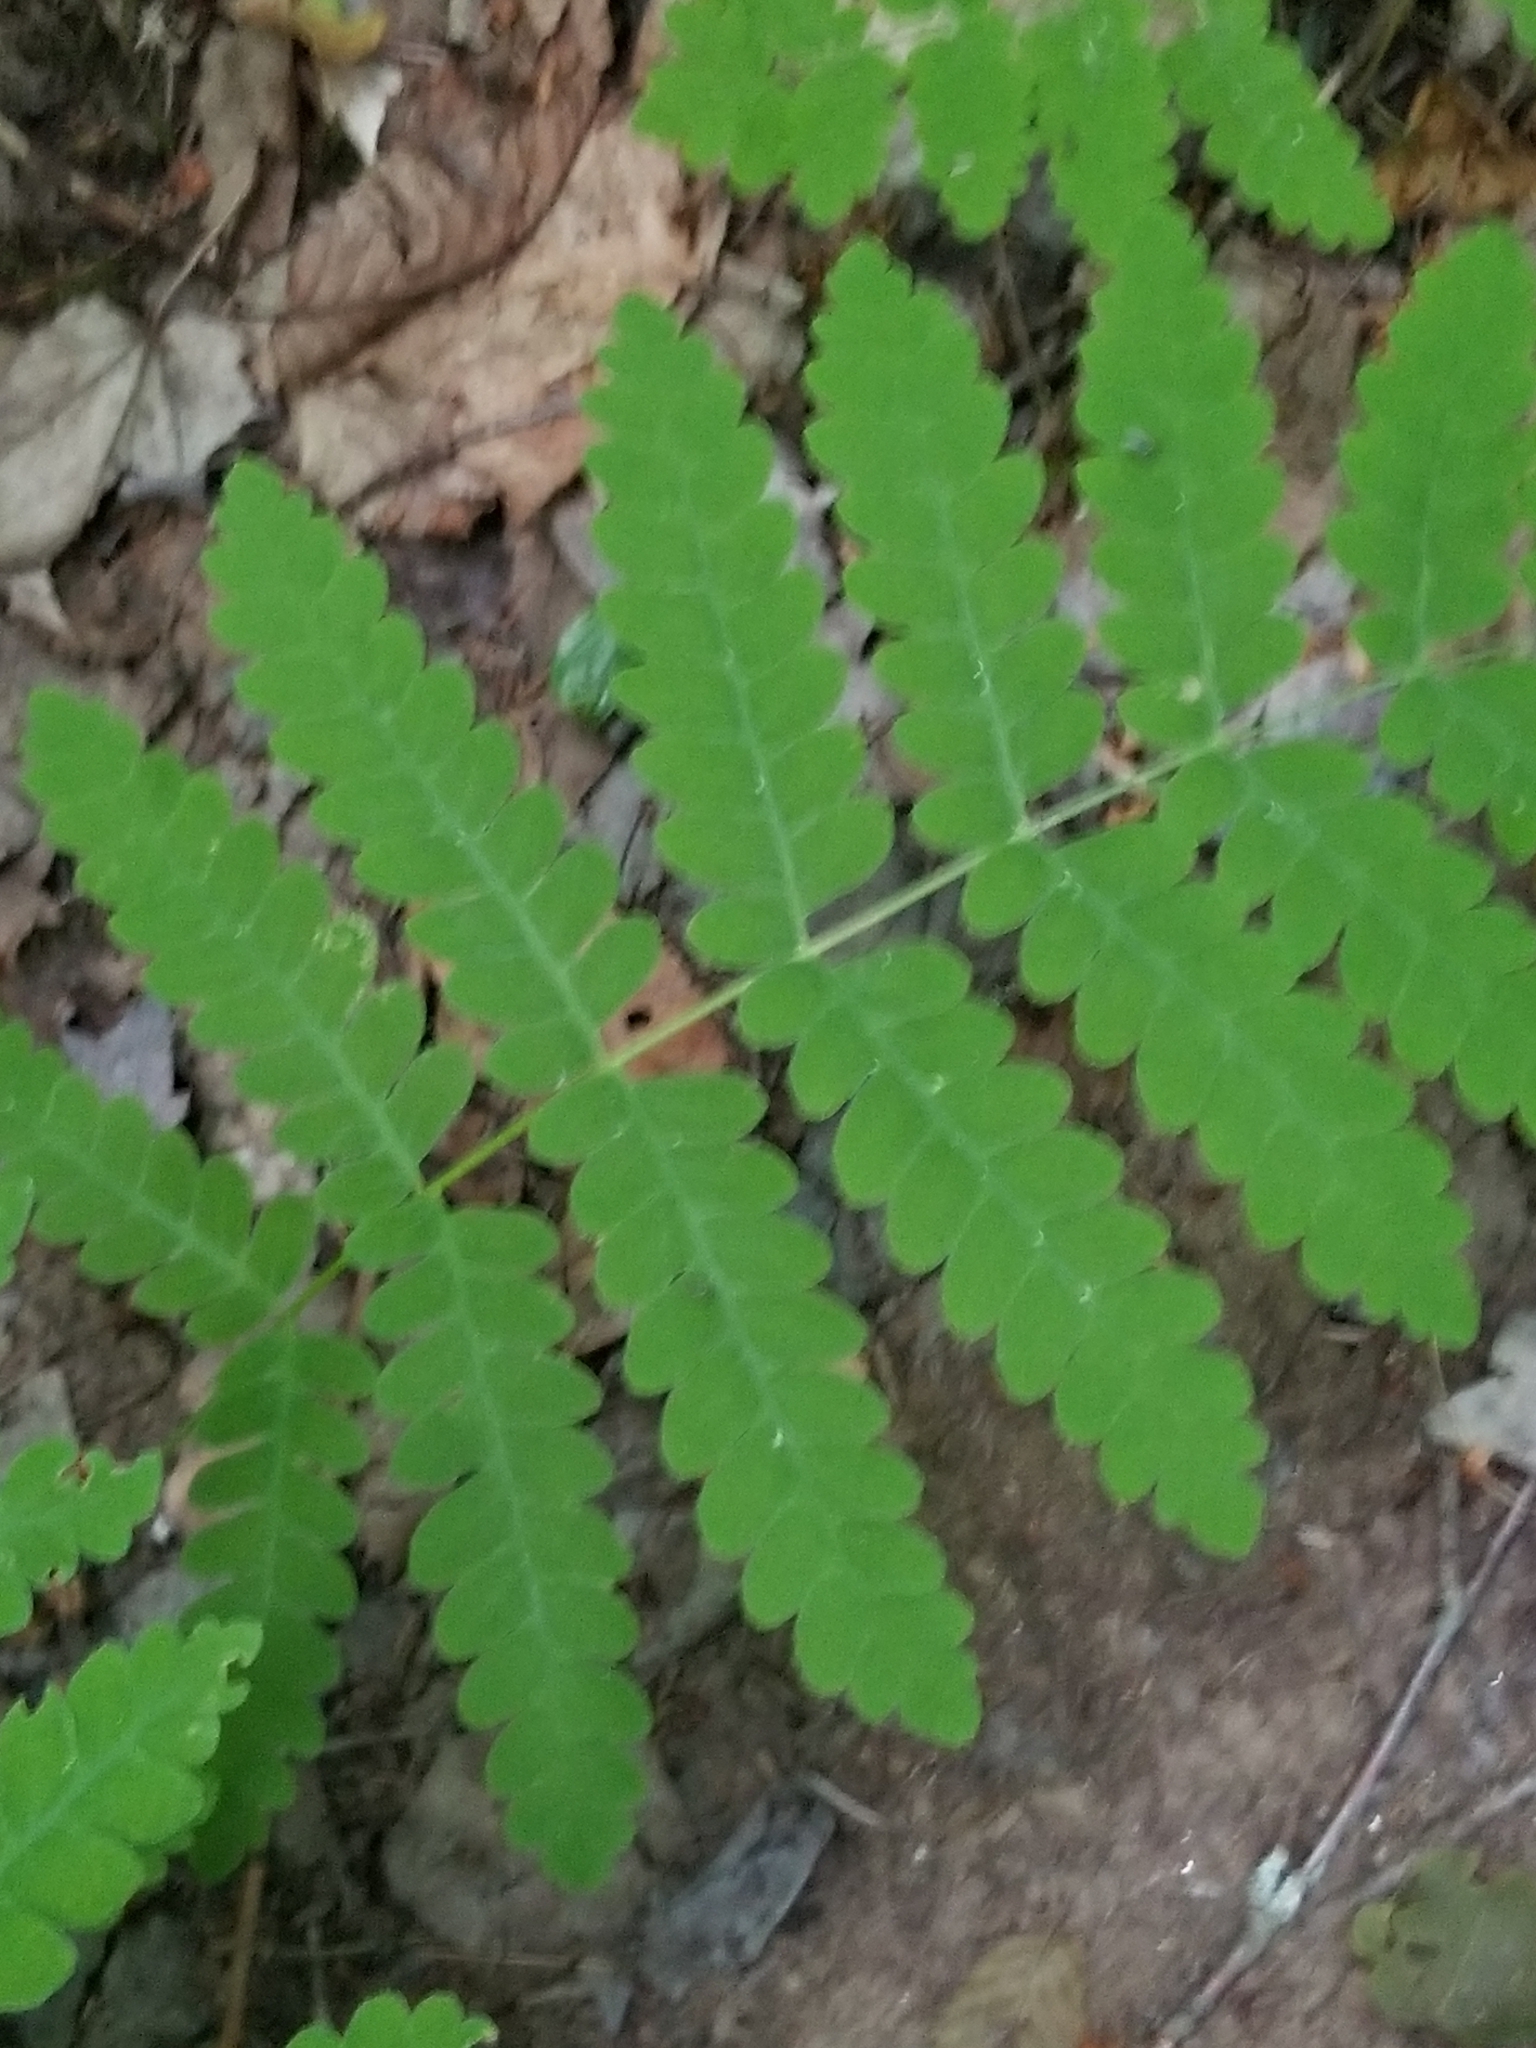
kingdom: Plantae
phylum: Tracheophyta
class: Polypodiopsida
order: Osmundales
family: Osmundaceae
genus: Claytosmunda
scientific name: Claytosmunda claytoniana
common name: Clayton's fern
